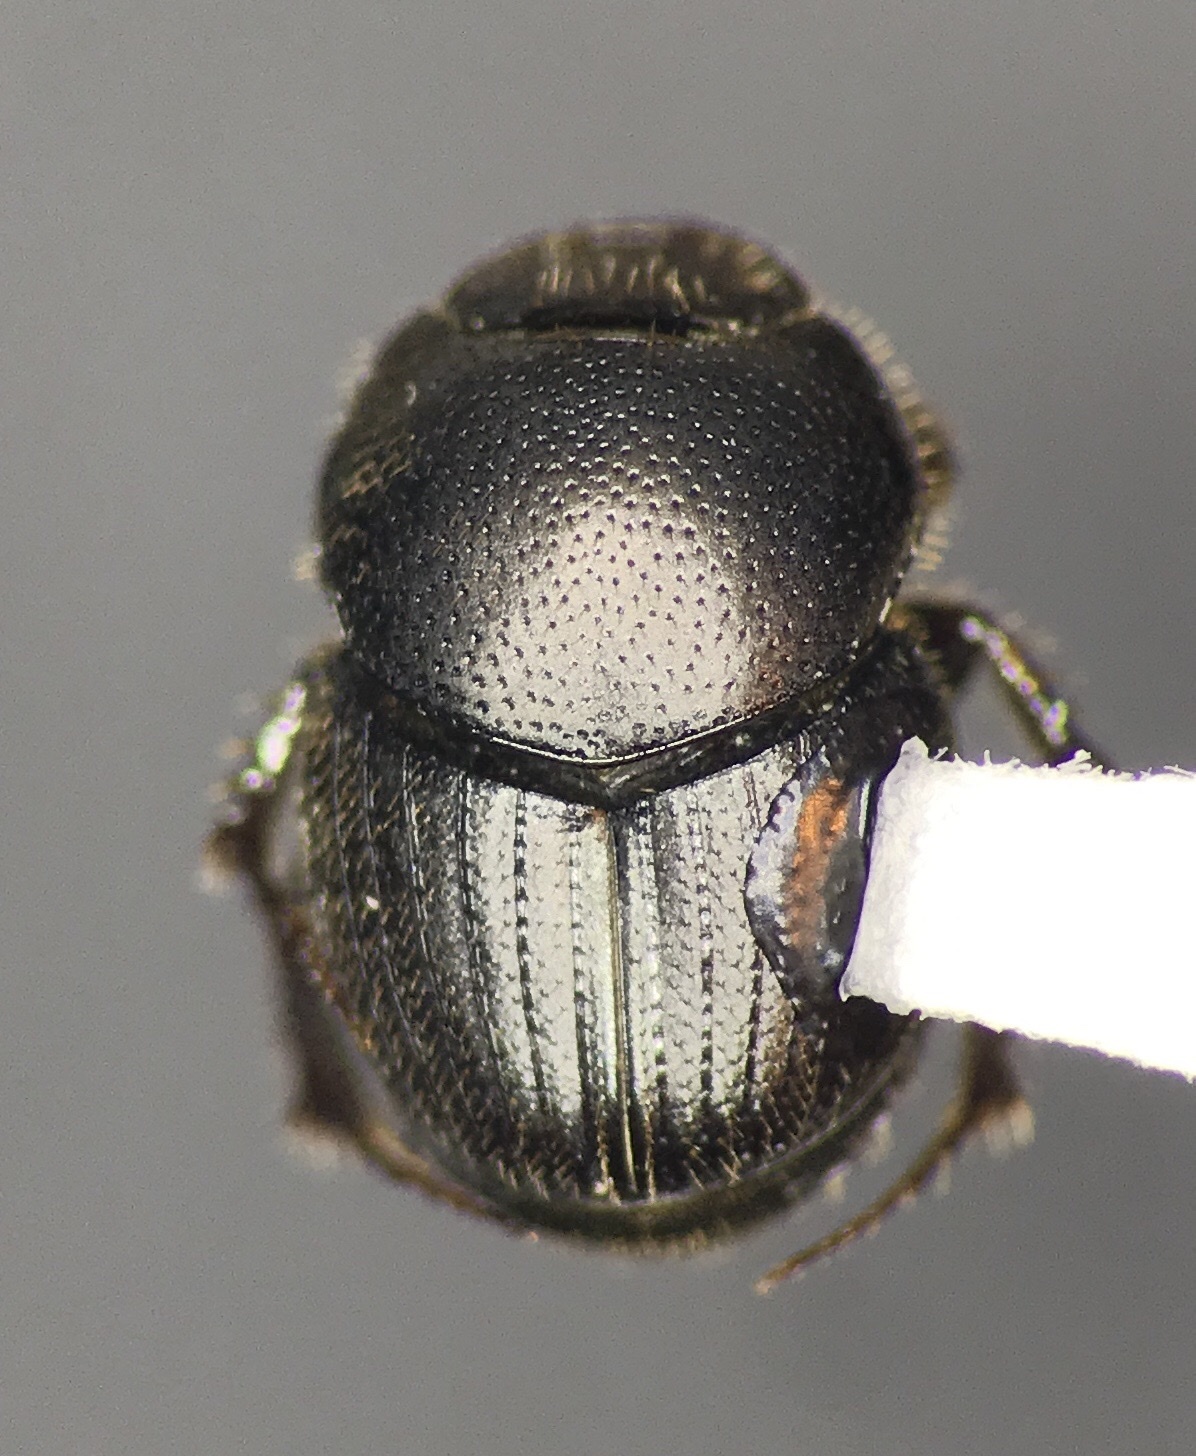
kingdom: Animalia
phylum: Arthropoda
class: Insecta
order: Coleoptera
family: Scarabaeidae
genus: Onthophagus
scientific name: Onthophagus pennsylvanicus
